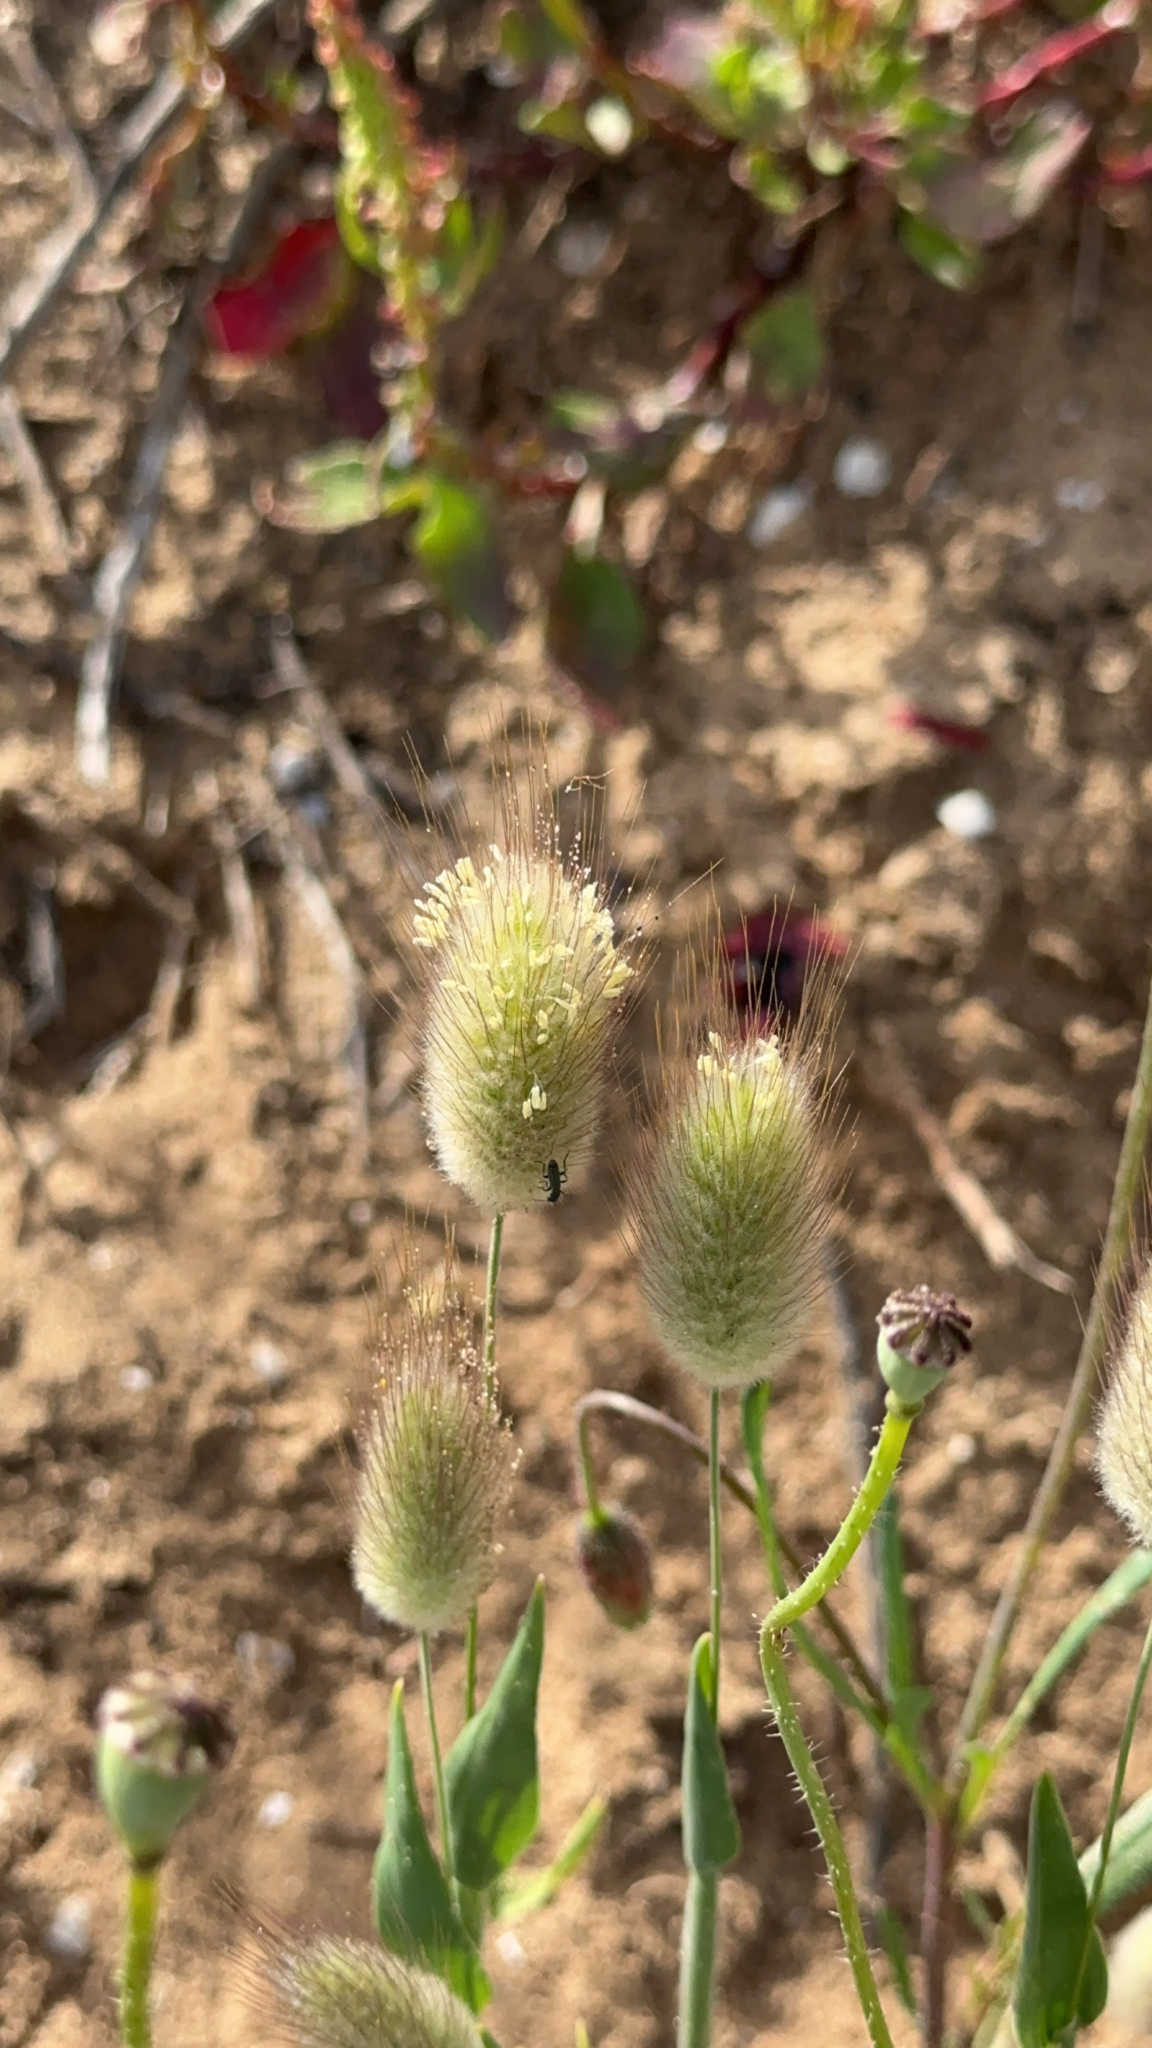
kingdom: Plantae
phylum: Tracheophyta
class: Liliopsida
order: Poales
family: Poaceae
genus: Lagurus
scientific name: Lagurus ovatus
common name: Hare's-tail
